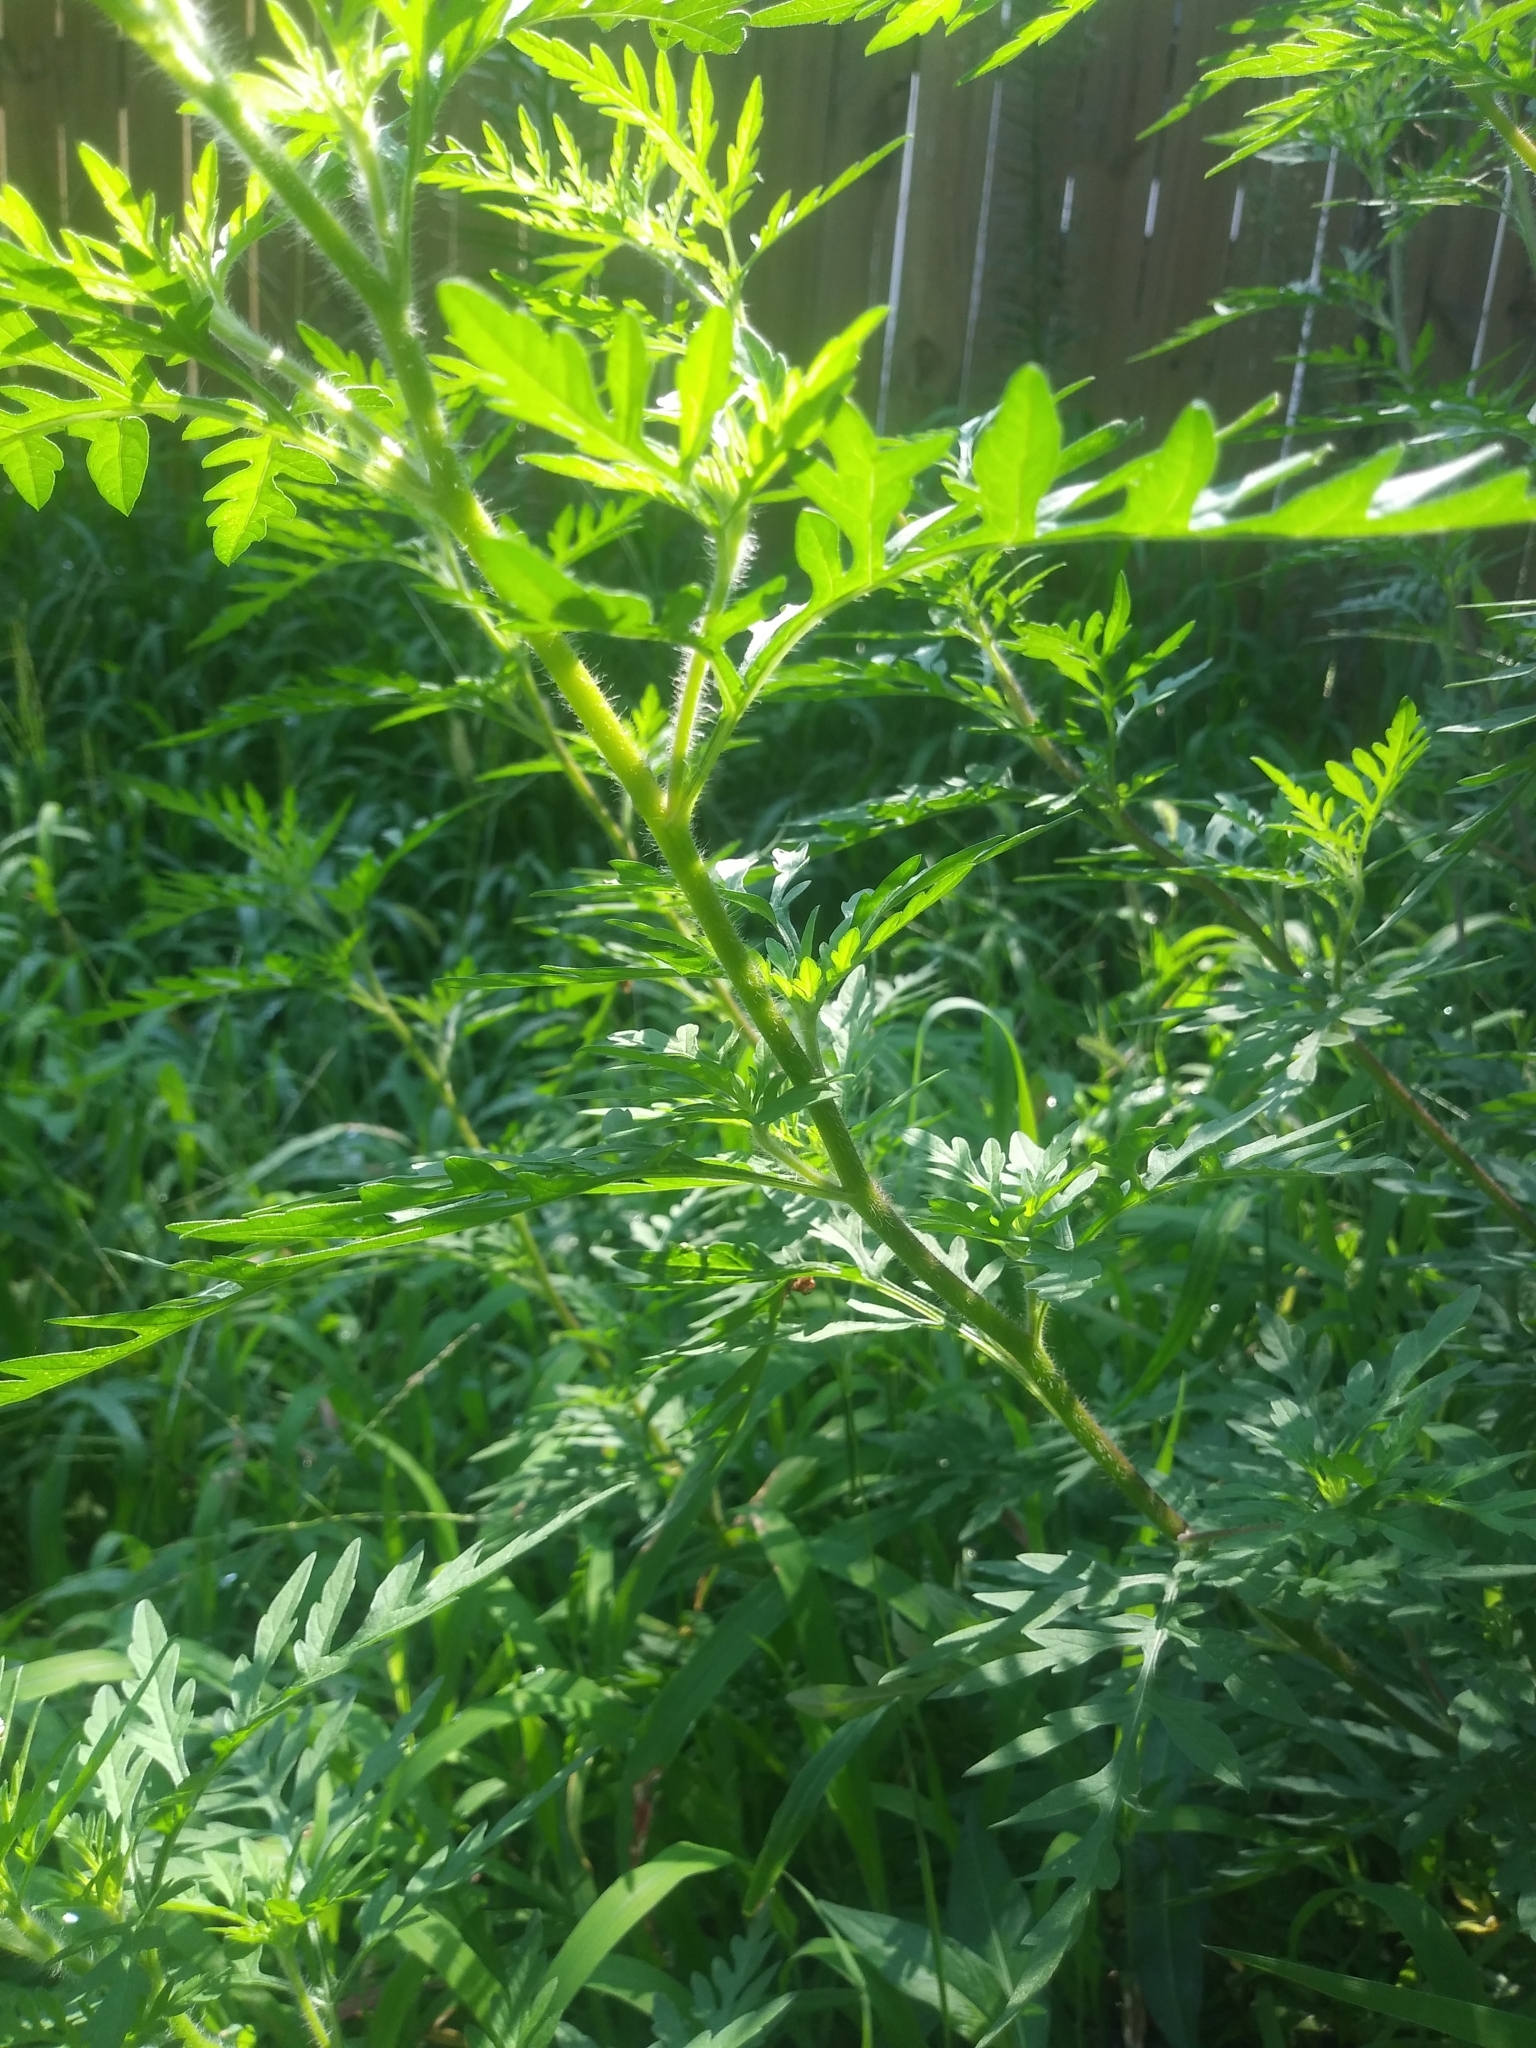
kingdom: Plantae
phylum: Tracheophyta
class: Magnoliopsida
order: Asterales
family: Asteraceae
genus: Ambrosia
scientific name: Ambrosia artemisiifolia
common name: Annual ragweed
